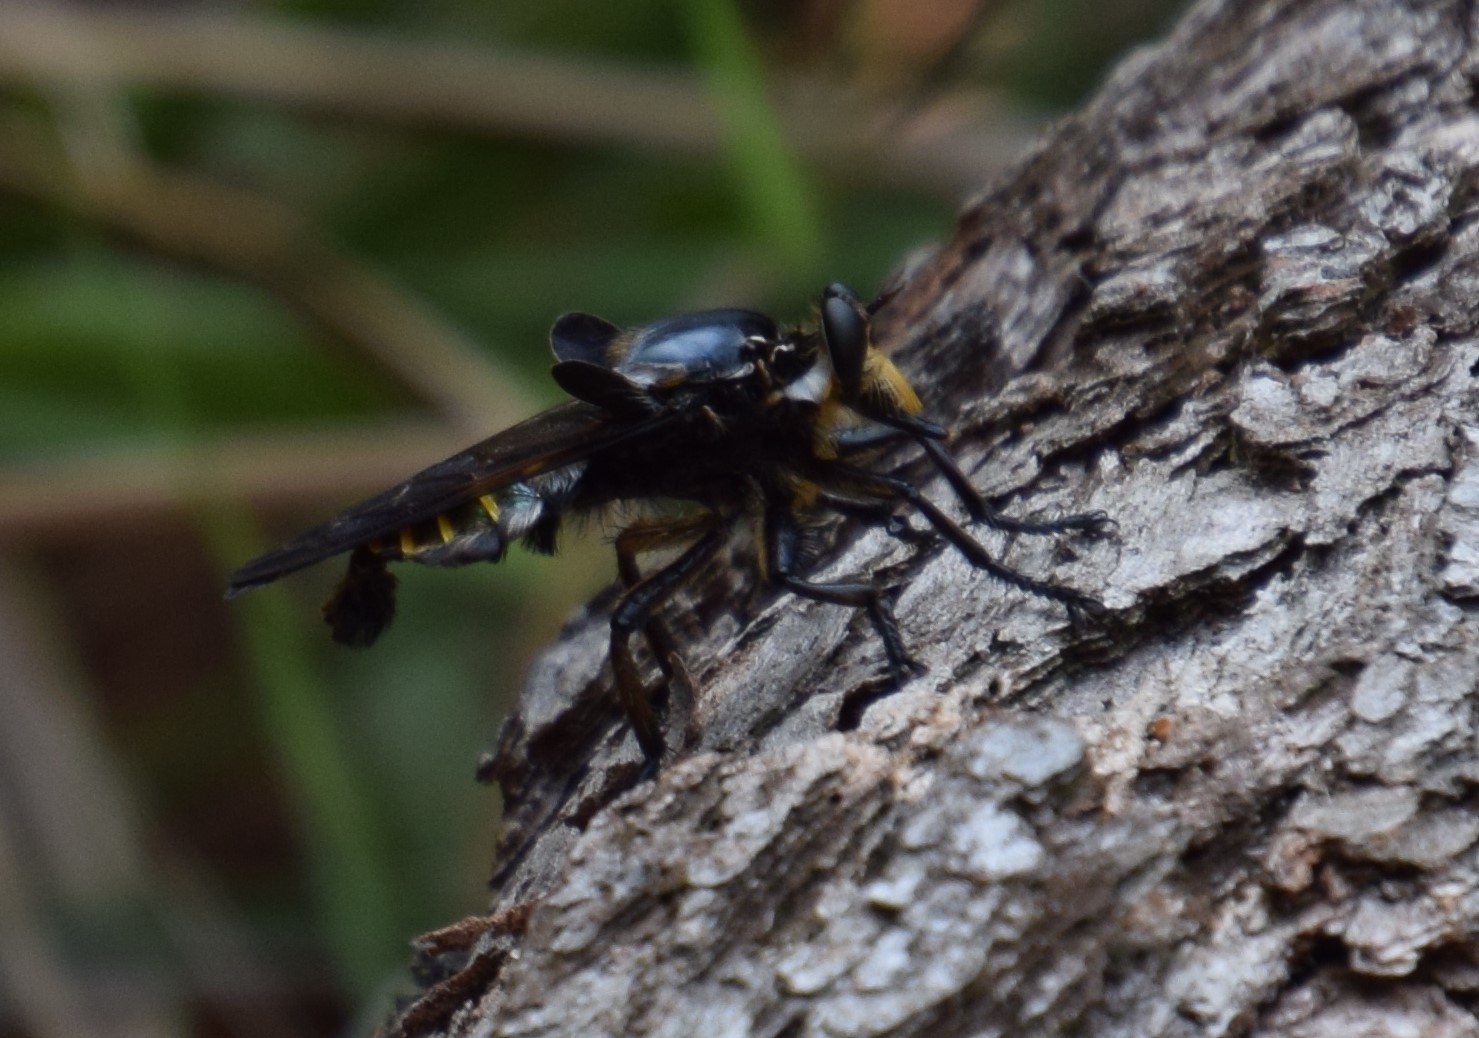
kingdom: Animalia
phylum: Arthropoda
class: Insecta
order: Diptera
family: Asilidae
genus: Blepharotes
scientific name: Blepharotes splendidissimus
